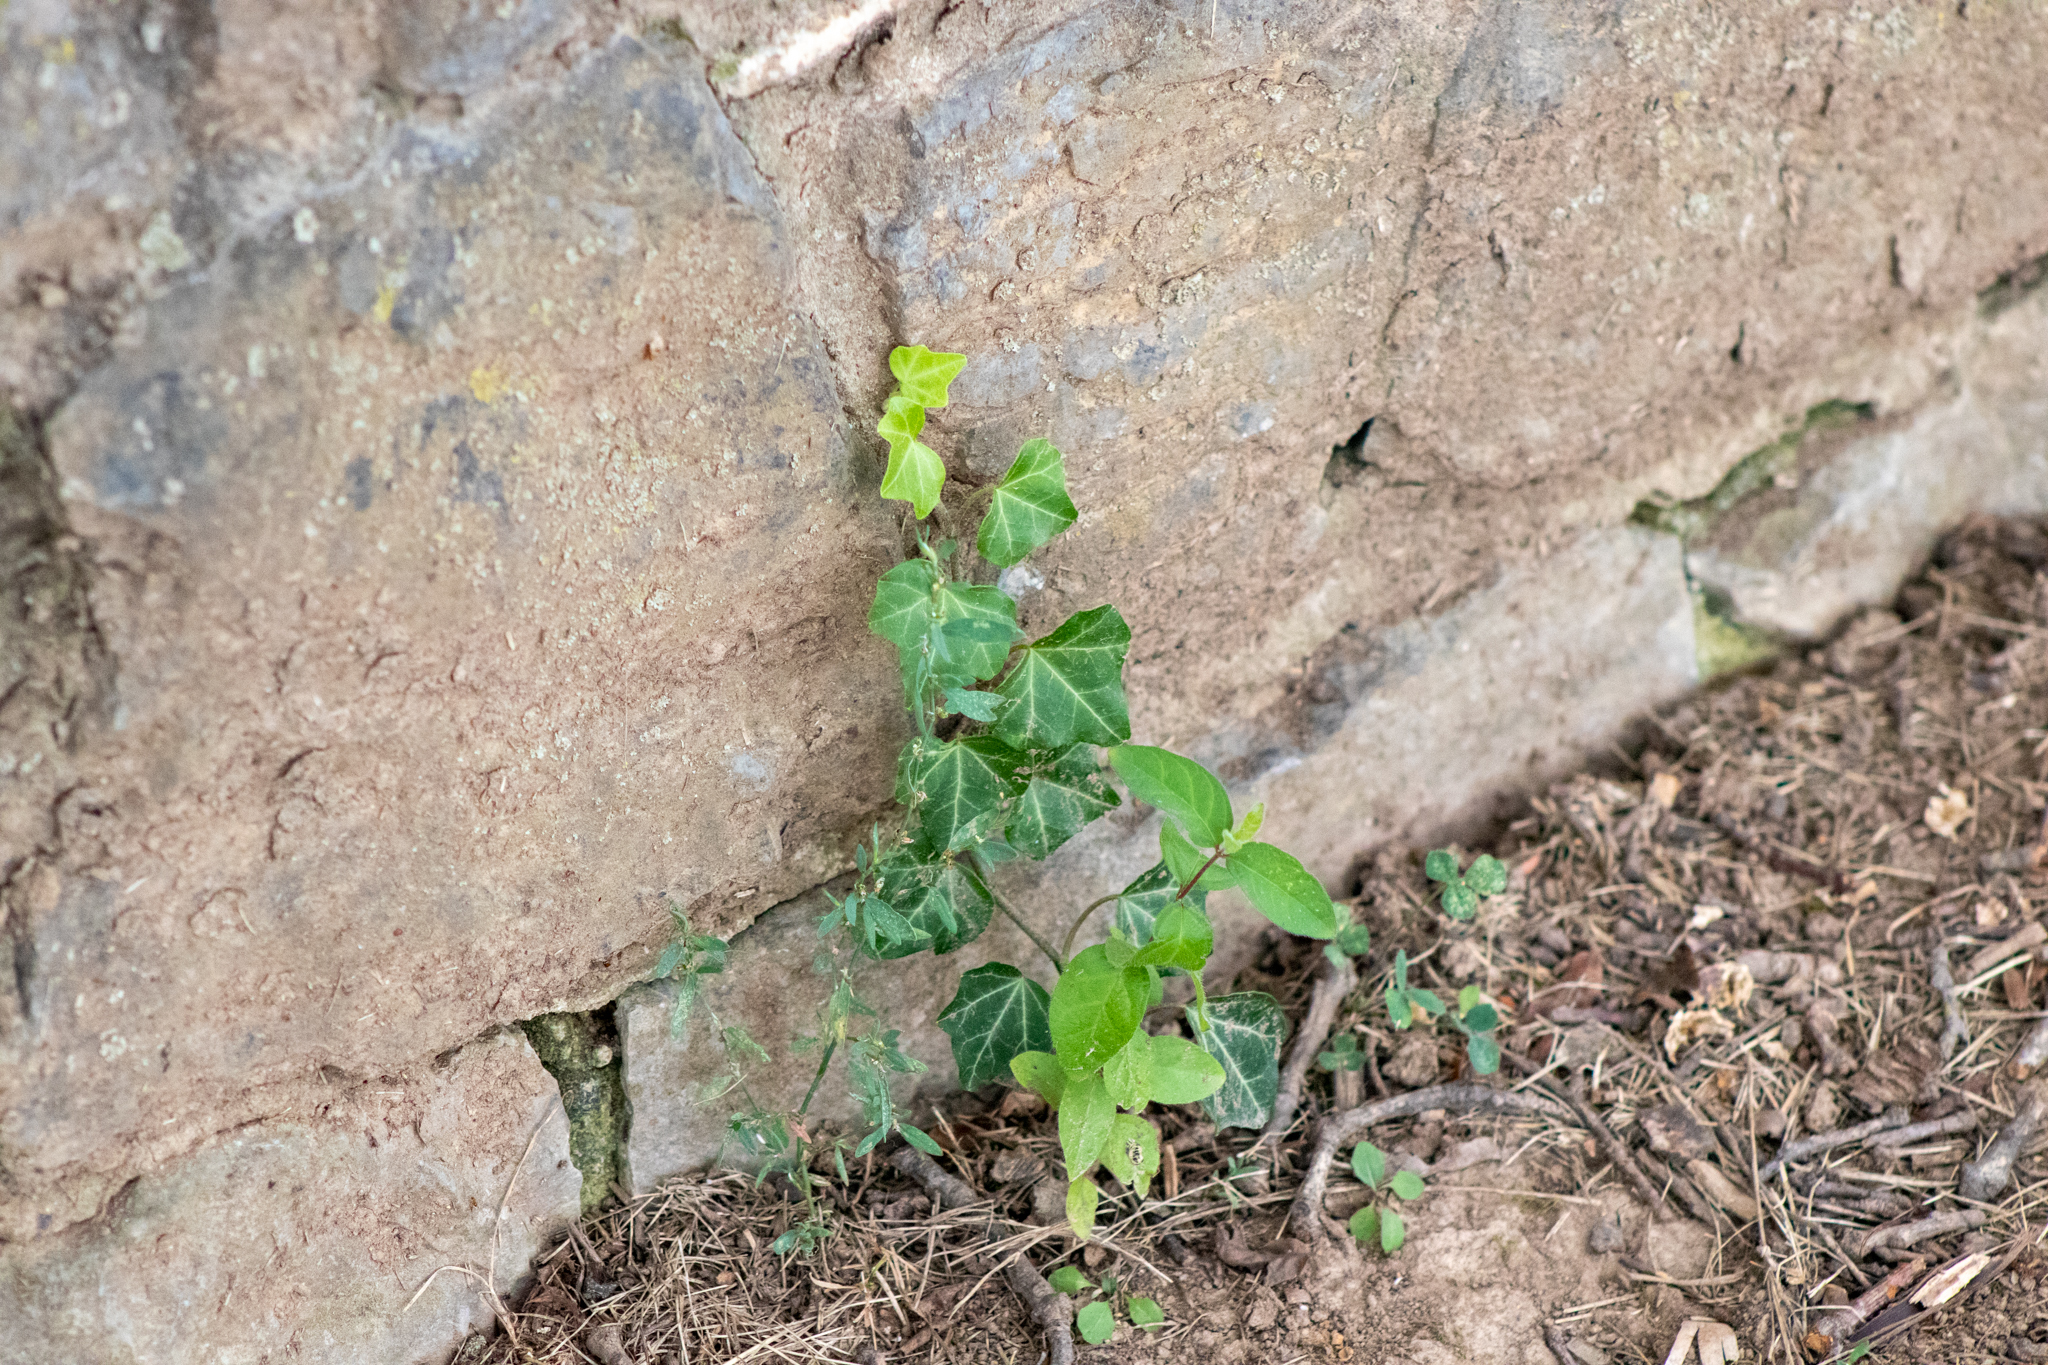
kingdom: Plantae
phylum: Tracheophyta
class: Magnoliopsida
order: Apiales
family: Araliaceae
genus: Hedera
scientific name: Hedera helix
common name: Ivy
